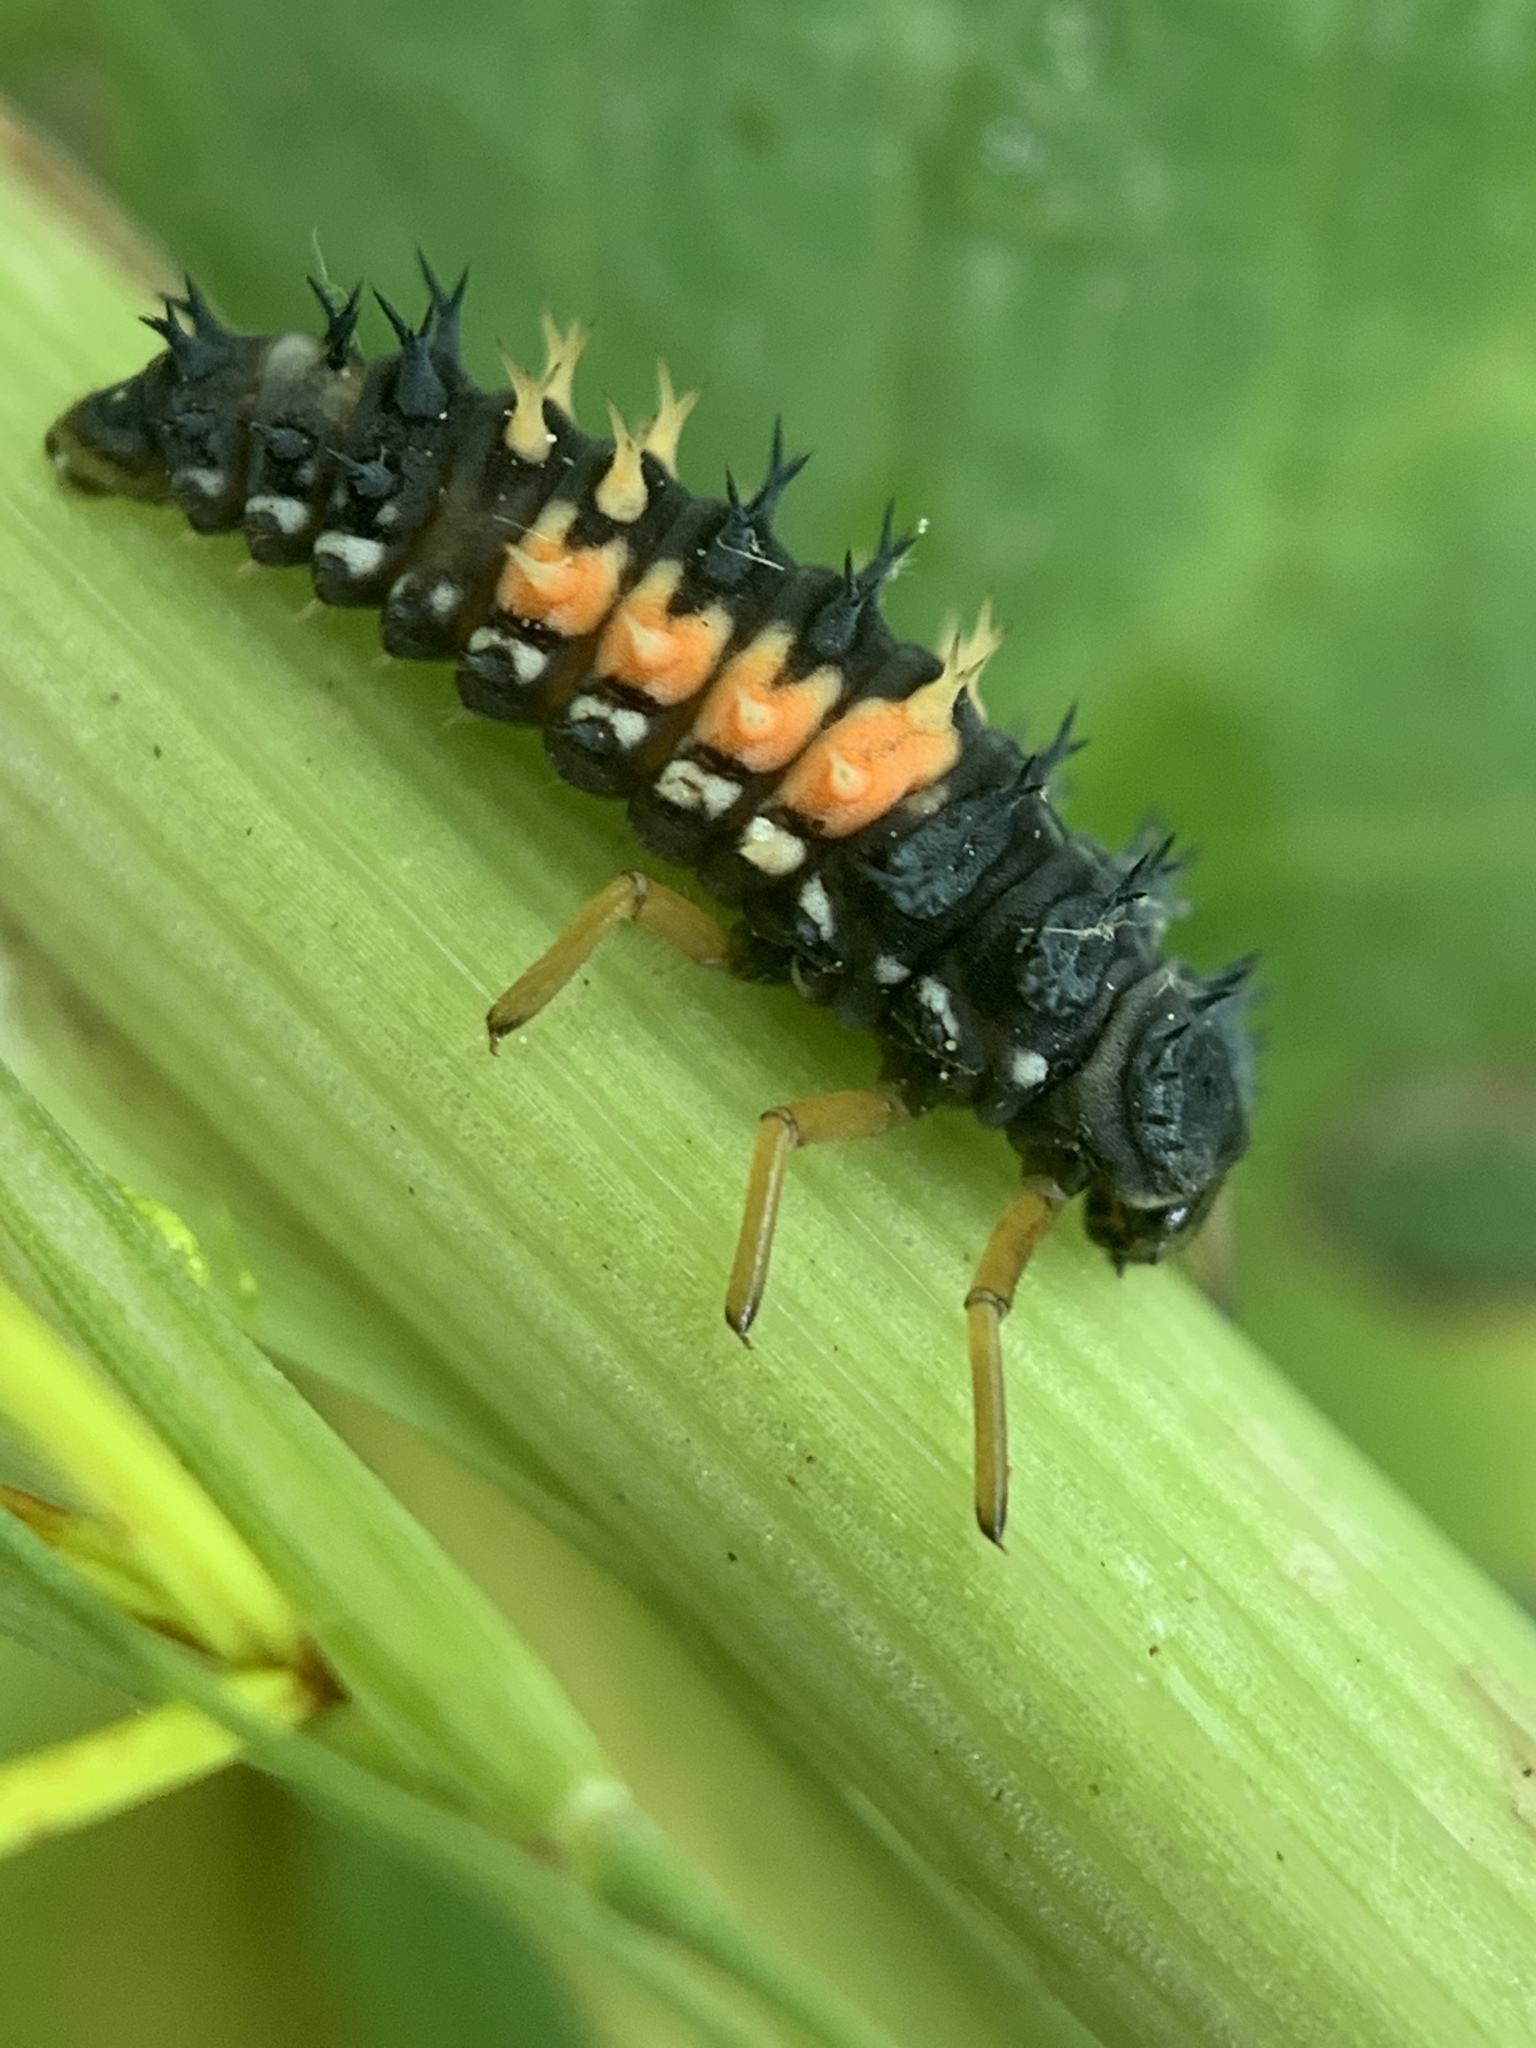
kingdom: Animalia
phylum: Arthropoda
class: Insecta
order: Coleoptera
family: Coccinellidae
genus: Harmonia
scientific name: Harmonia axyridis
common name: Harlequin ladybird
